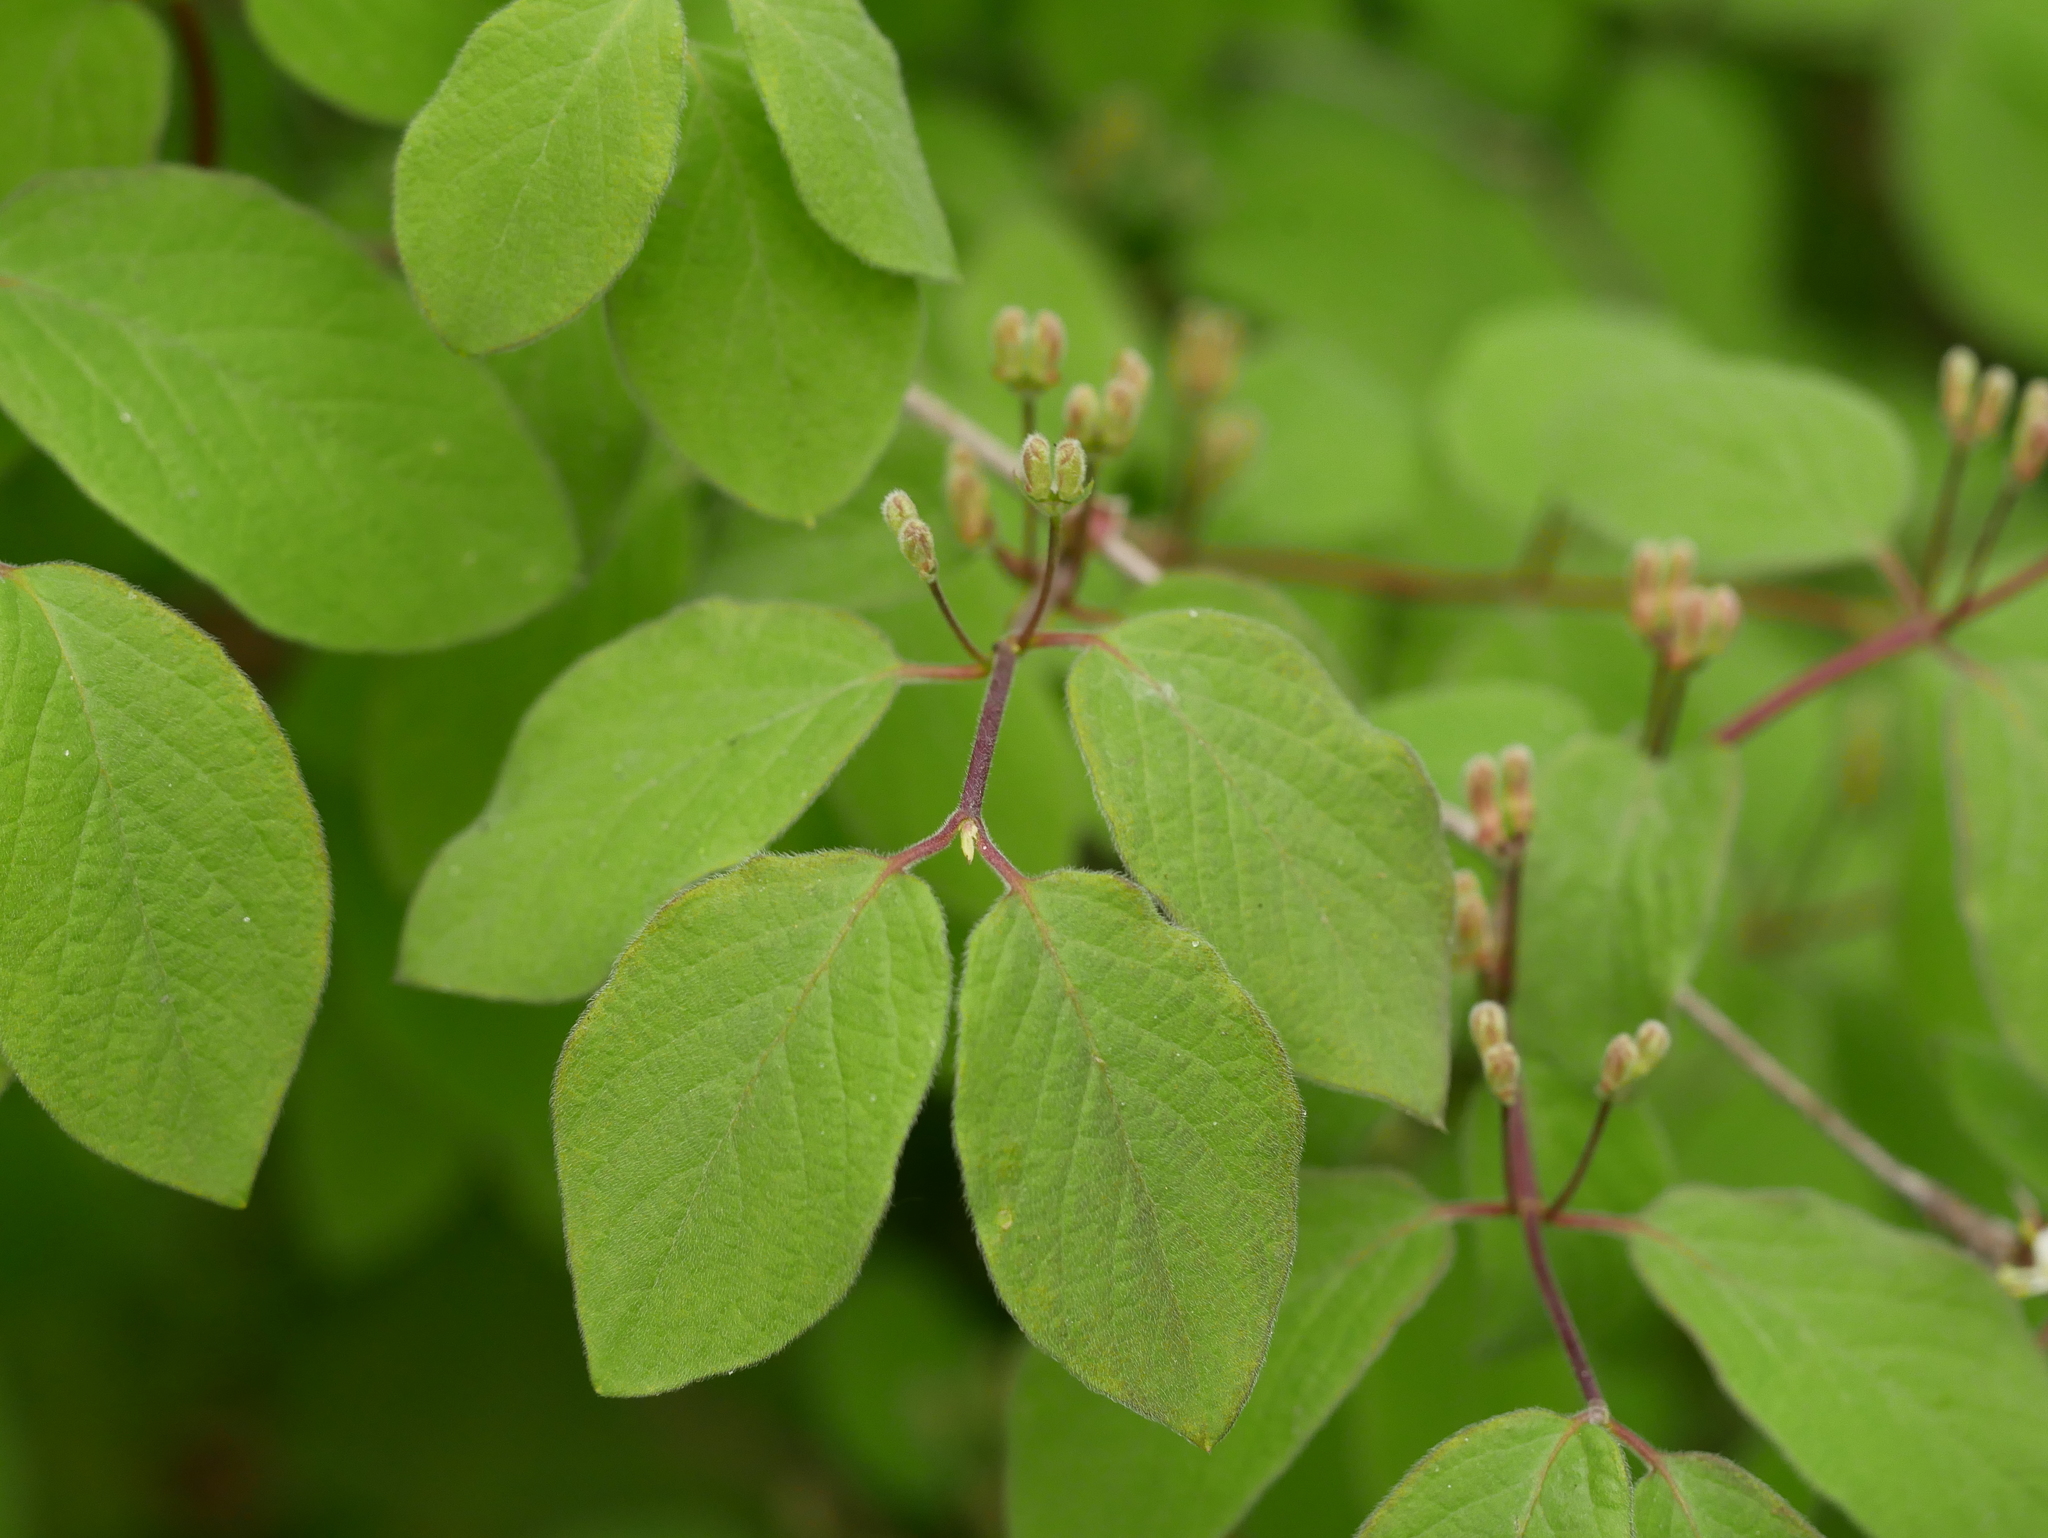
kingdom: Plantae
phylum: Tracheophyta
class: Magnoliopsida
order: Dipsacales
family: Caprifoliaceae
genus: Lonicera
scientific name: Lonicera xylosteum
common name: Fly honeysuckle
